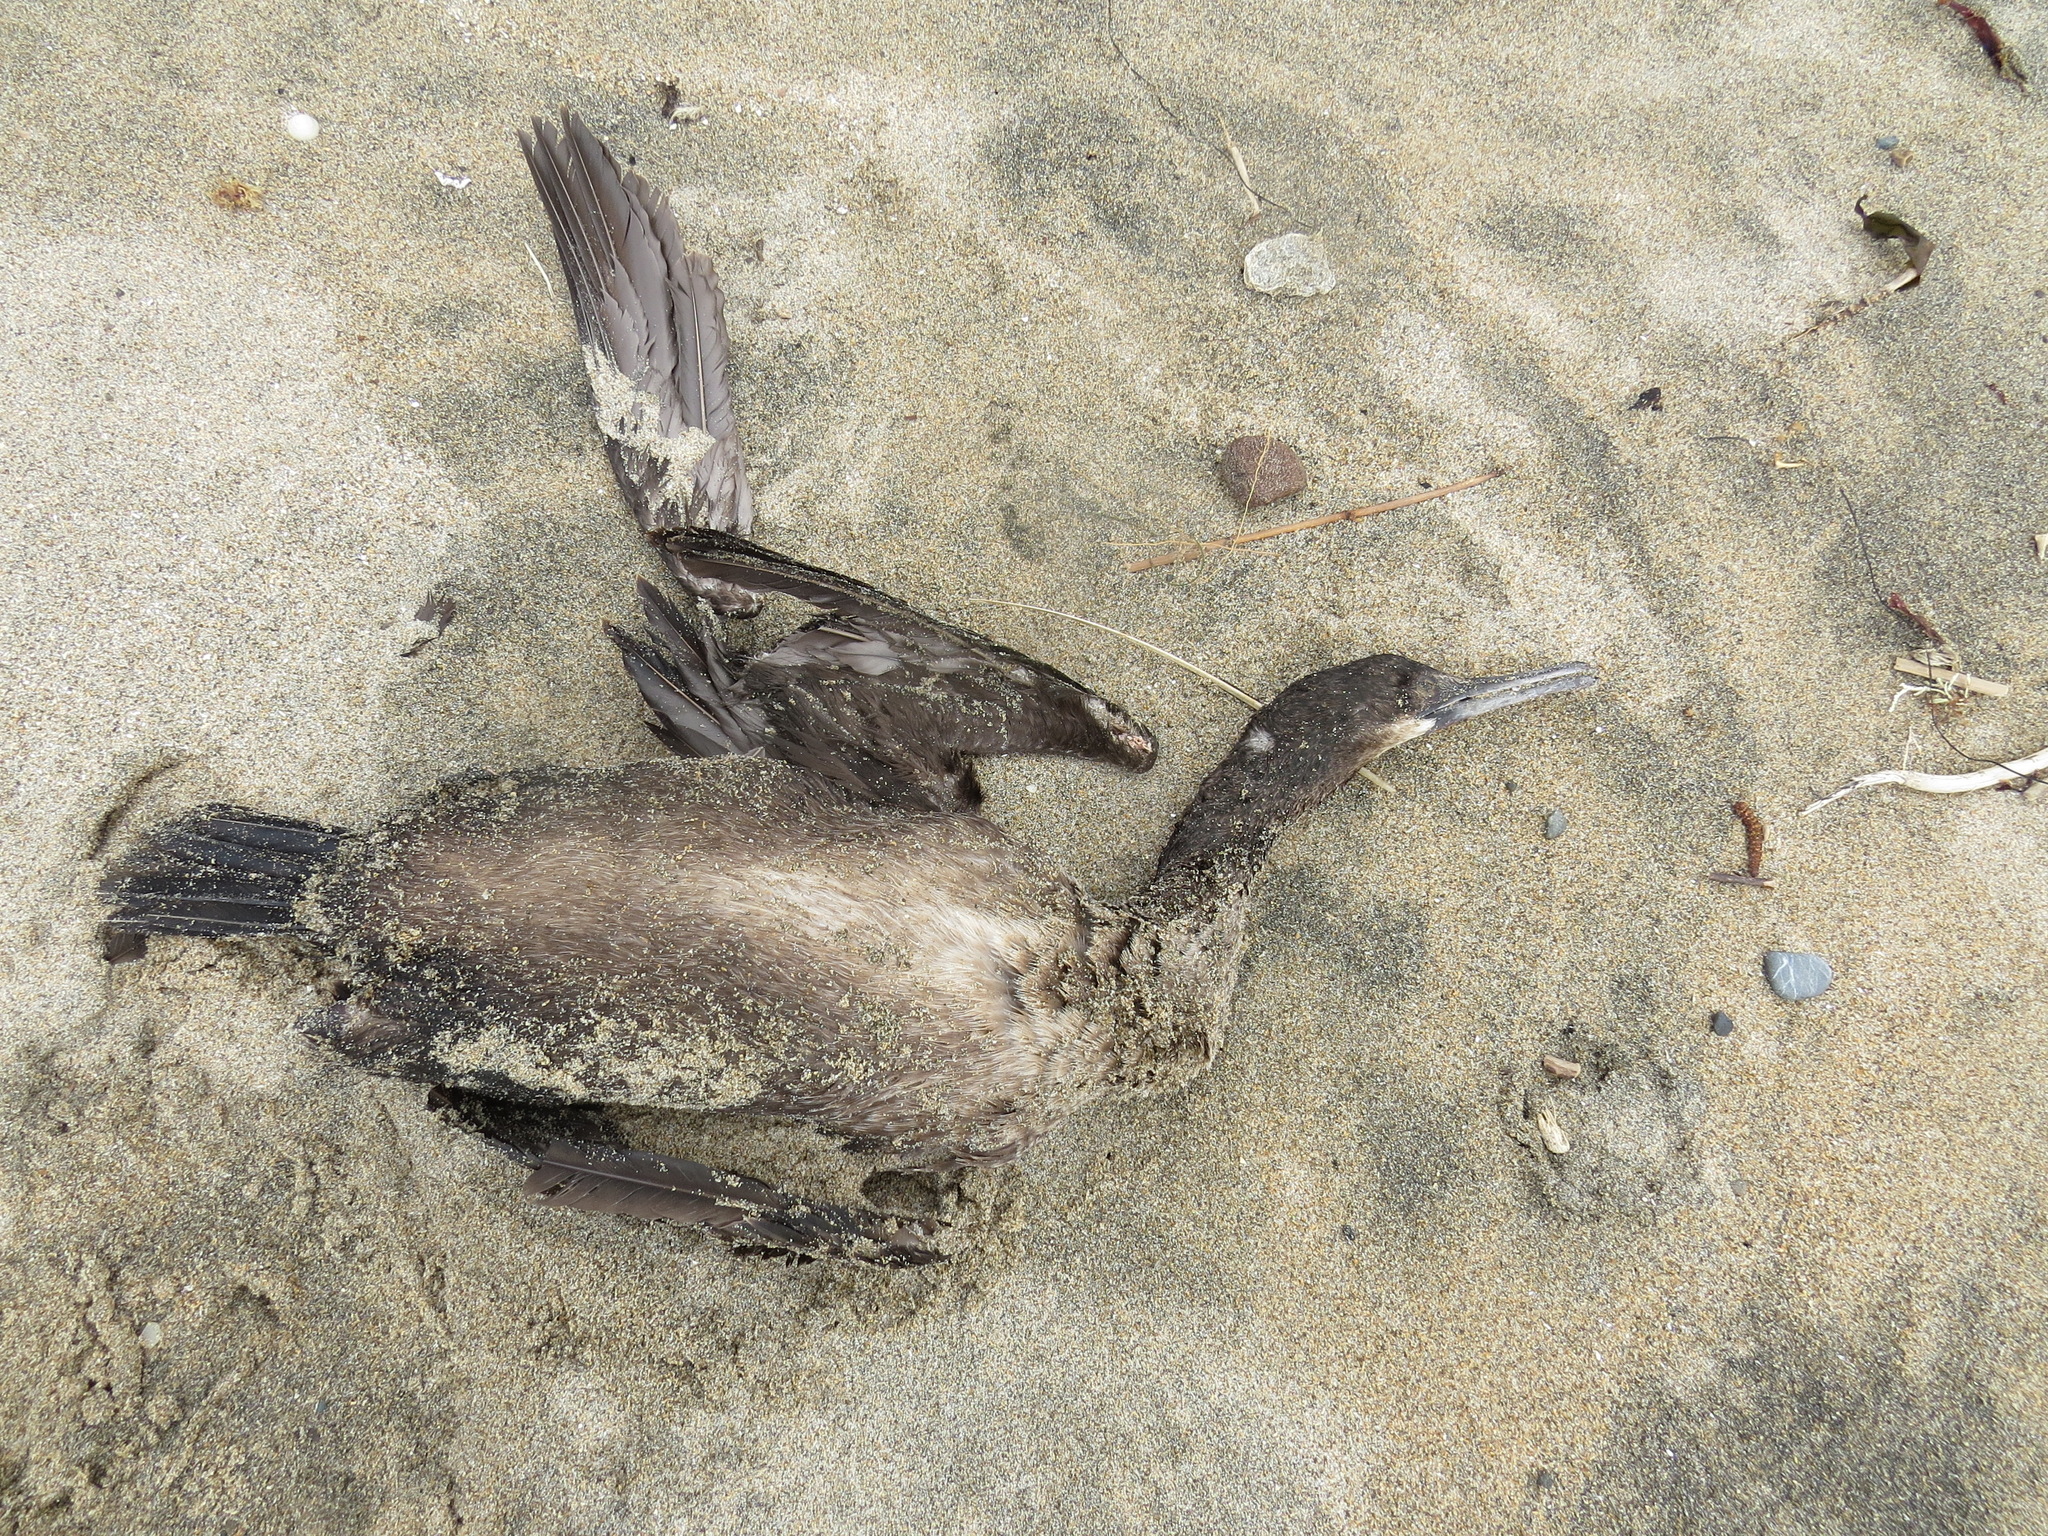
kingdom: Animalia
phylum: Chordata
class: Aves
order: Suliformes
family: Phalacrocoracidae
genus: Urile
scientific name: Urile penicillatus
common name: Brandt's cormorant
